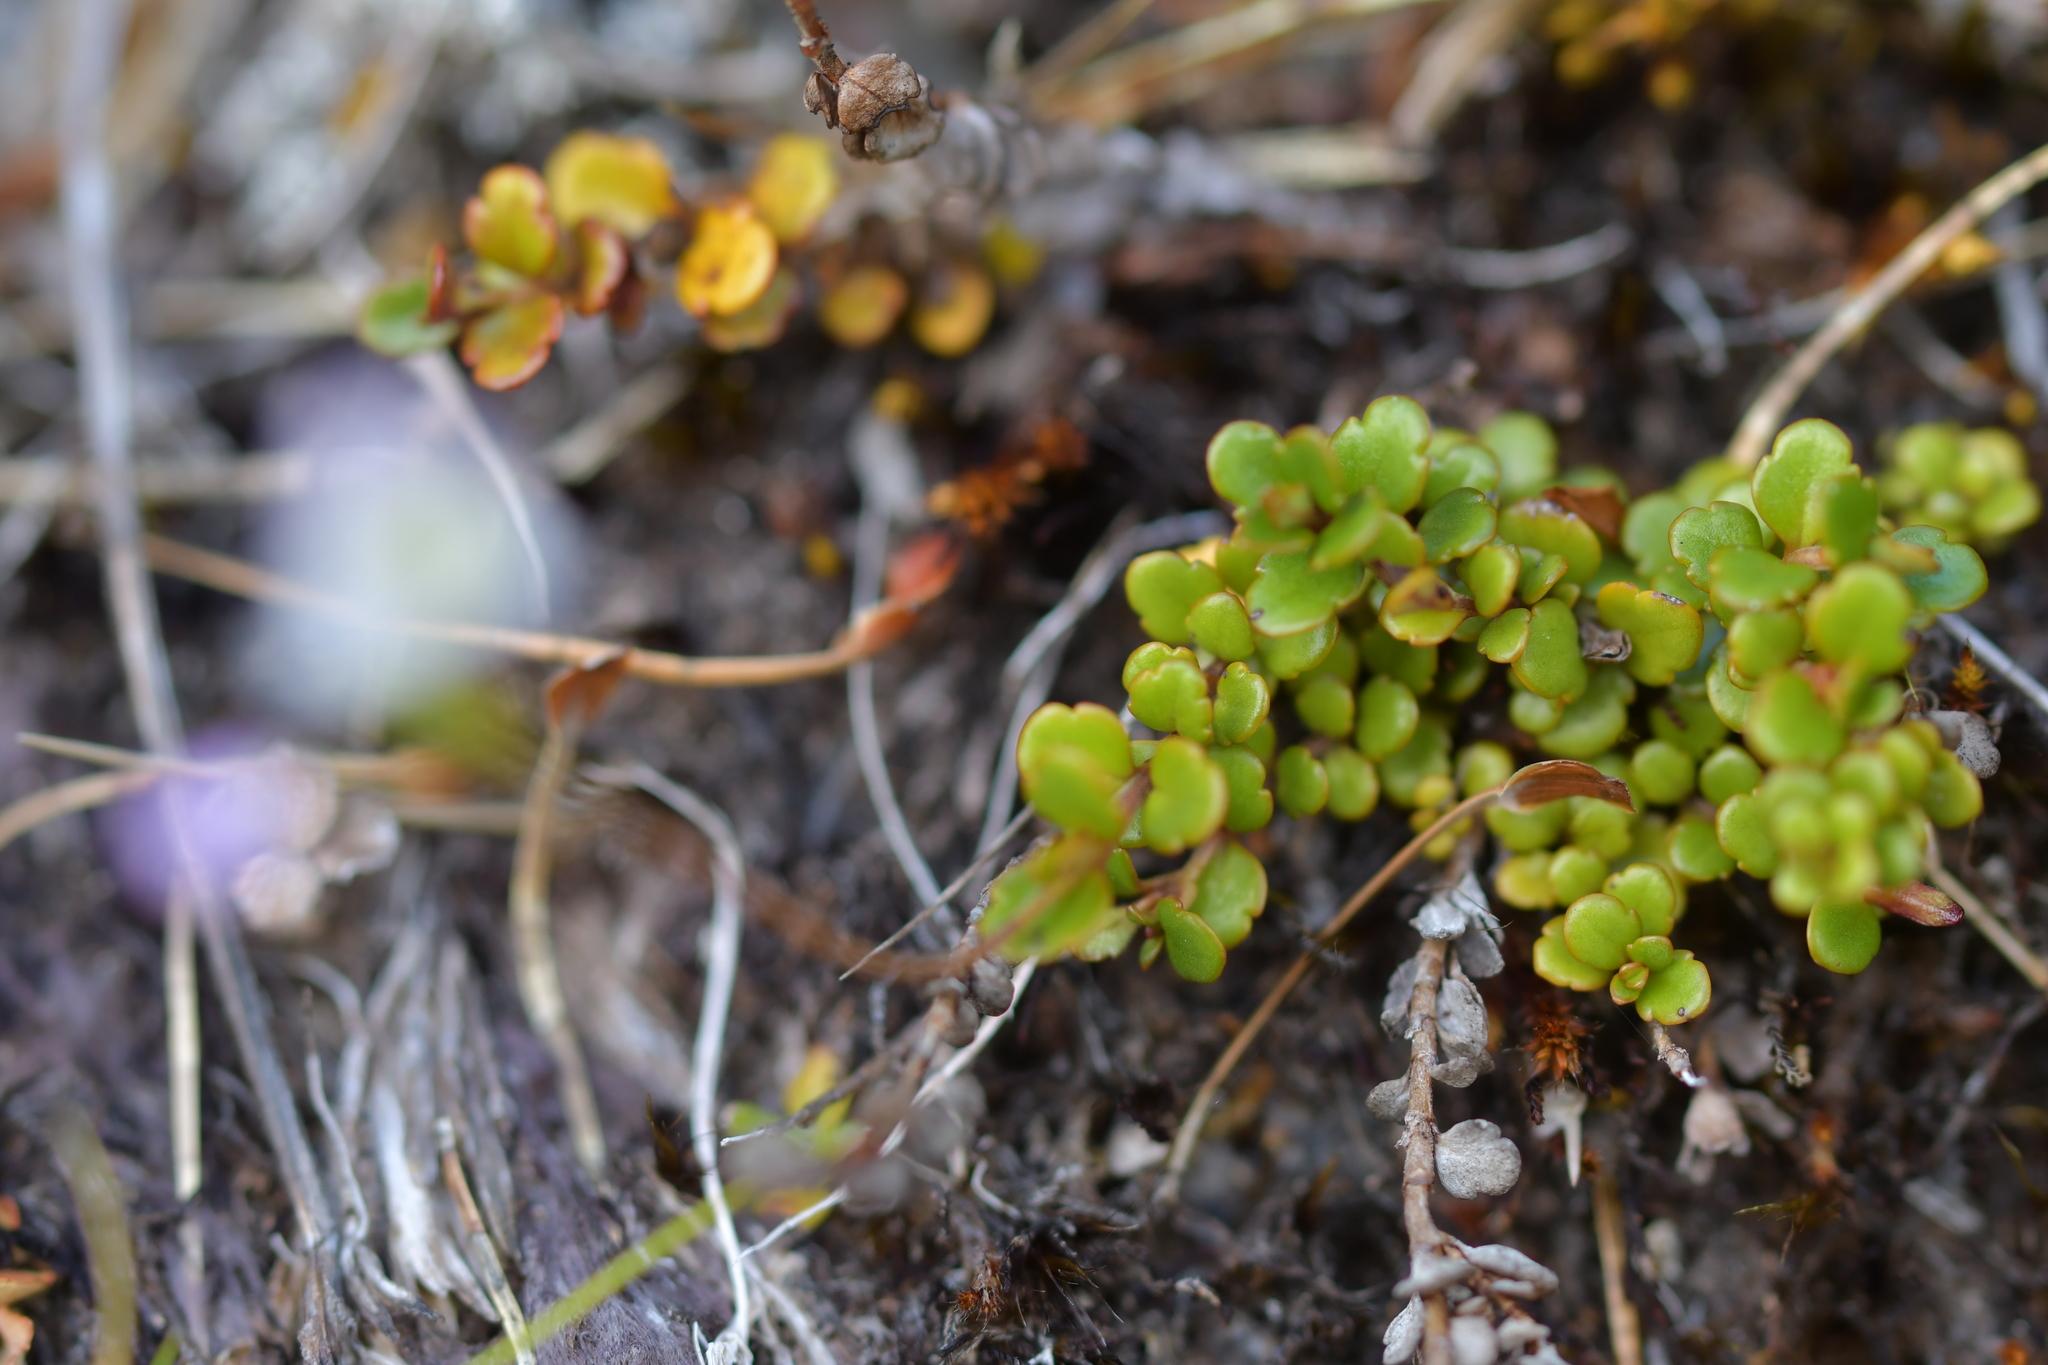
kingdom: Plantae
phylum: Tracheophyta
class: Magnoliopsida
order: Lamiales
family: Plantaginaceae
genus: Veronica
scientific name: Veronica decora
